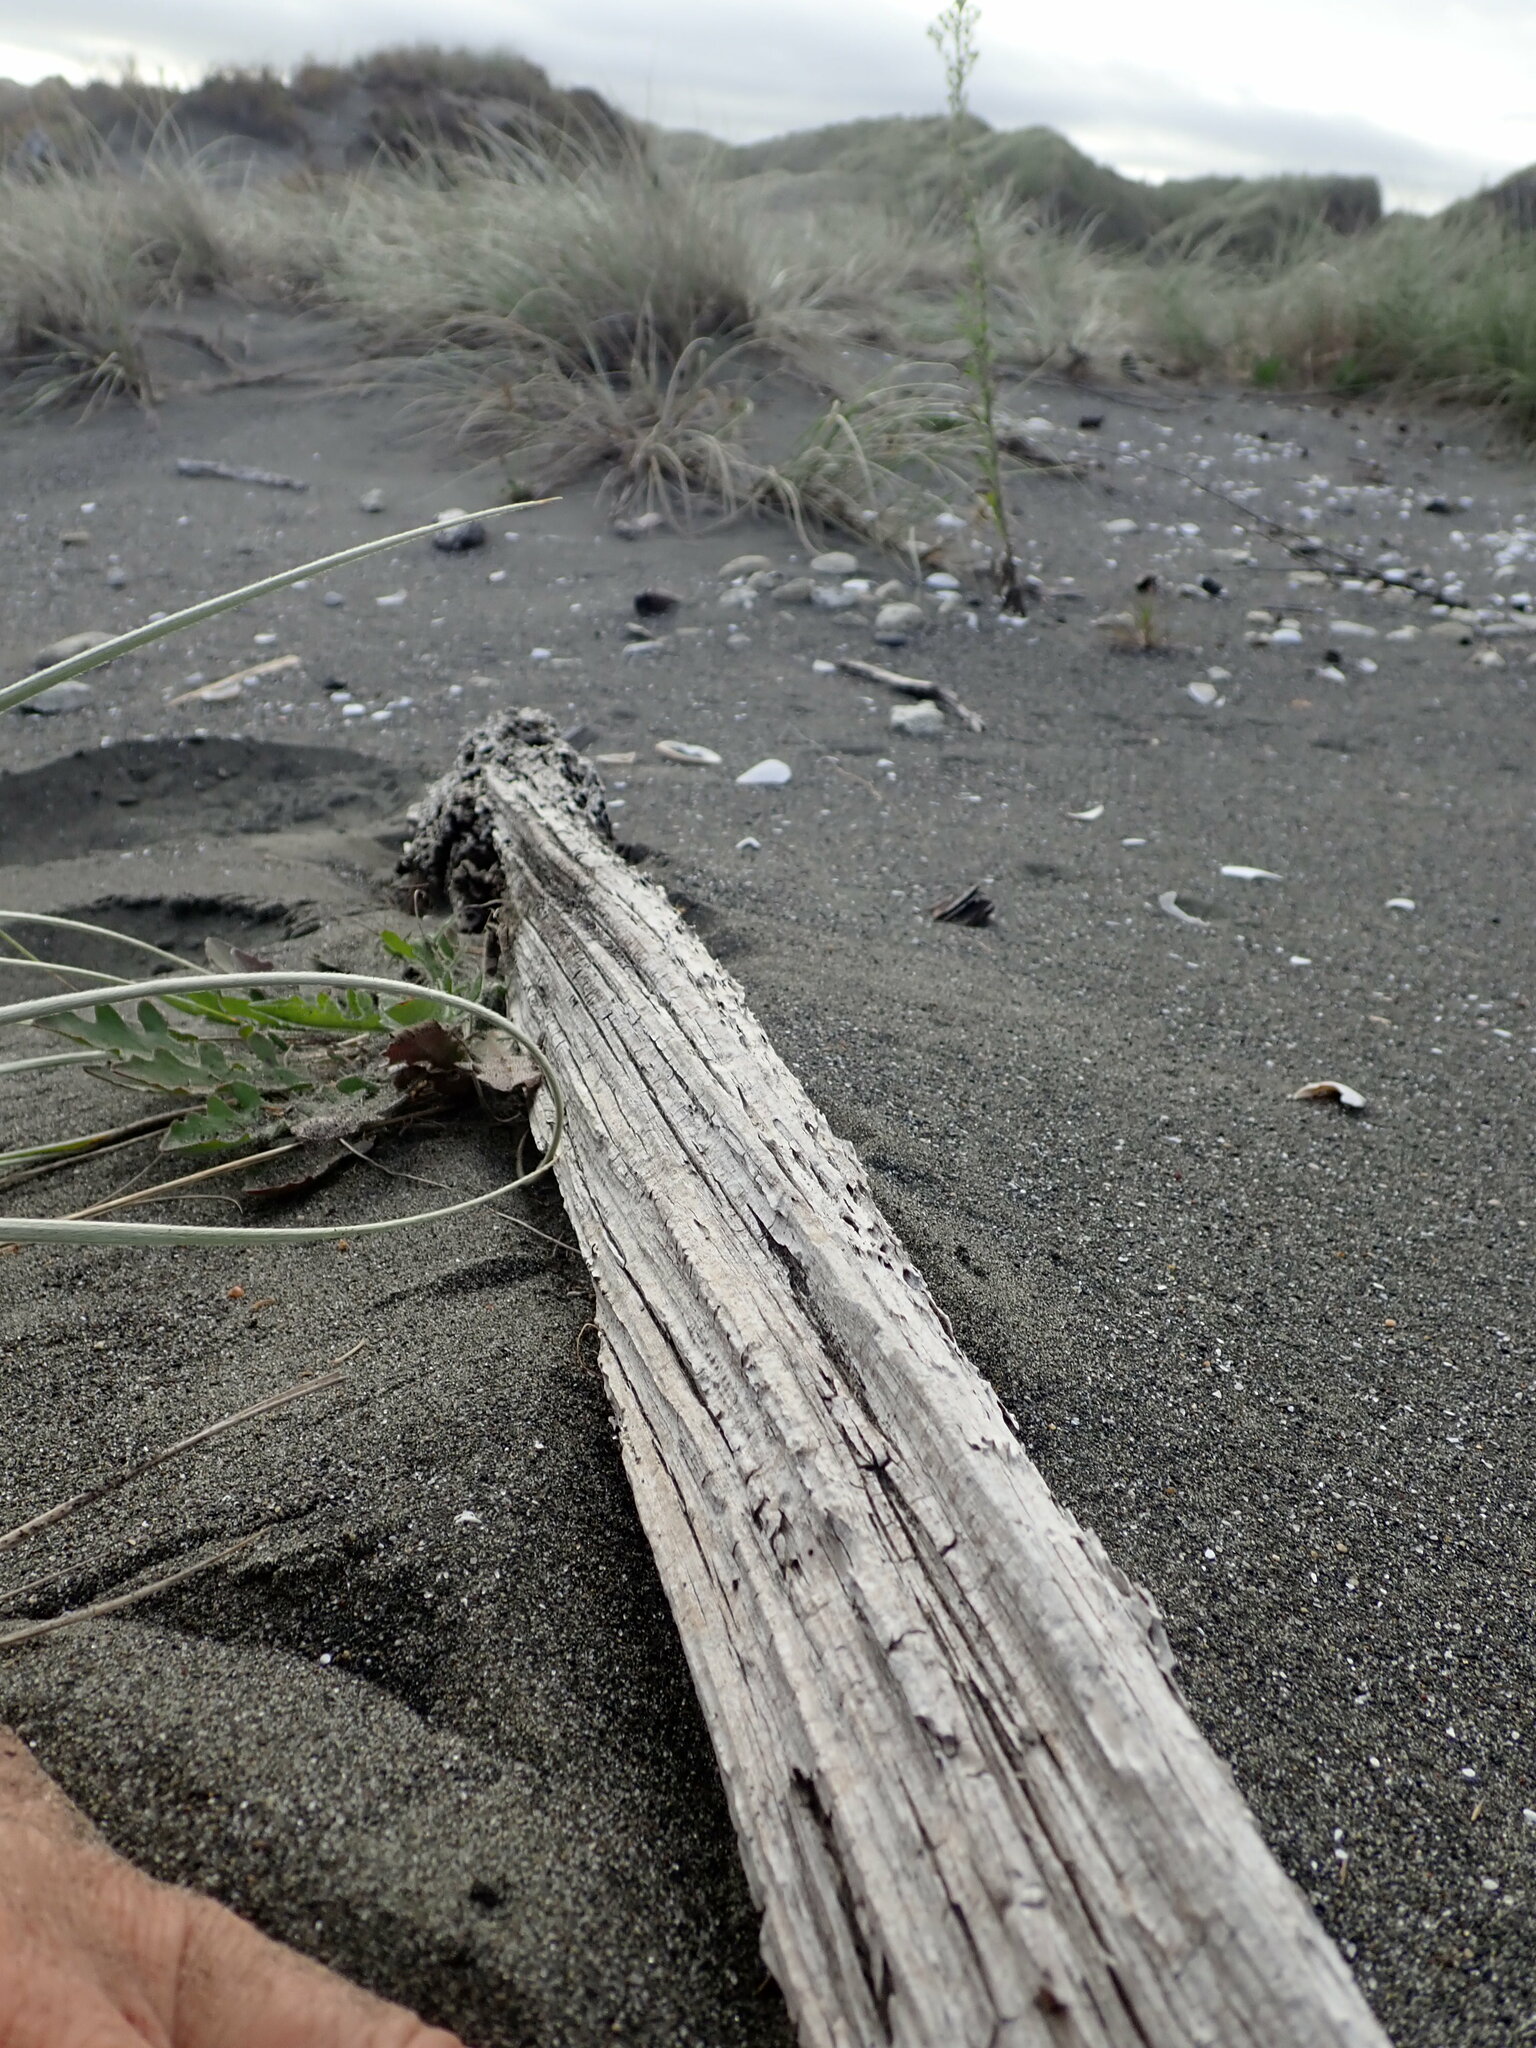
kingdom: Animalia
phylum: Arthropoda
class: Arachnida
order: Araneae
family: Theridiidae
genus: Latrodectus
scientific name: Latrodectus katipo
